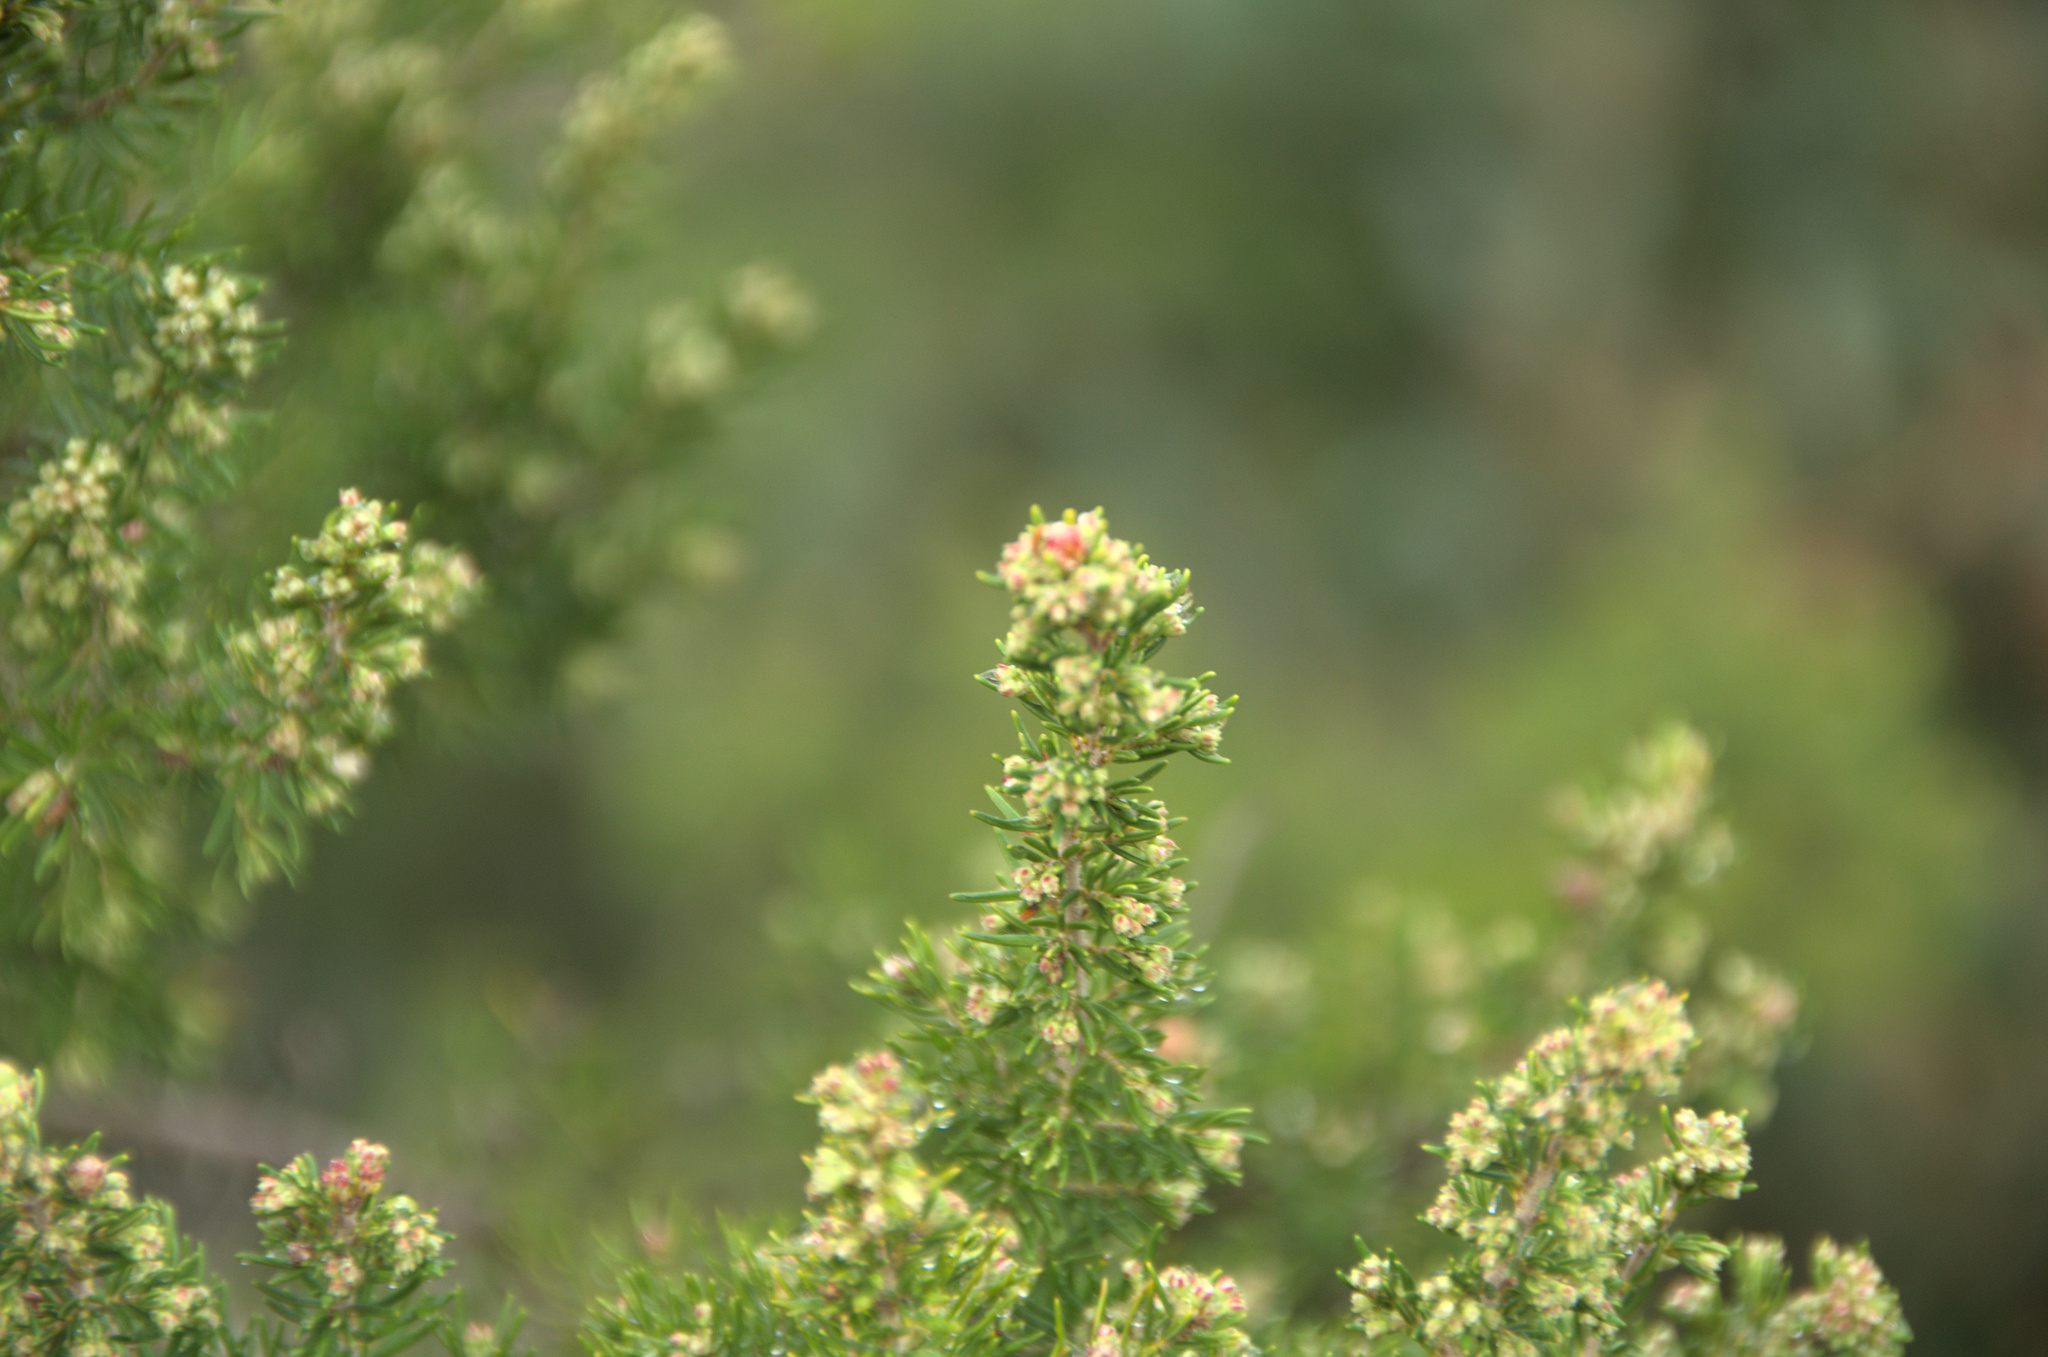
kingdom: Plantae
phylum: Tracheophyta
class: Magnoliopsida
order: Ericales
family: Ericaceae
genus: Erica
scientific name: Erica arborea
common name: Tree heath
